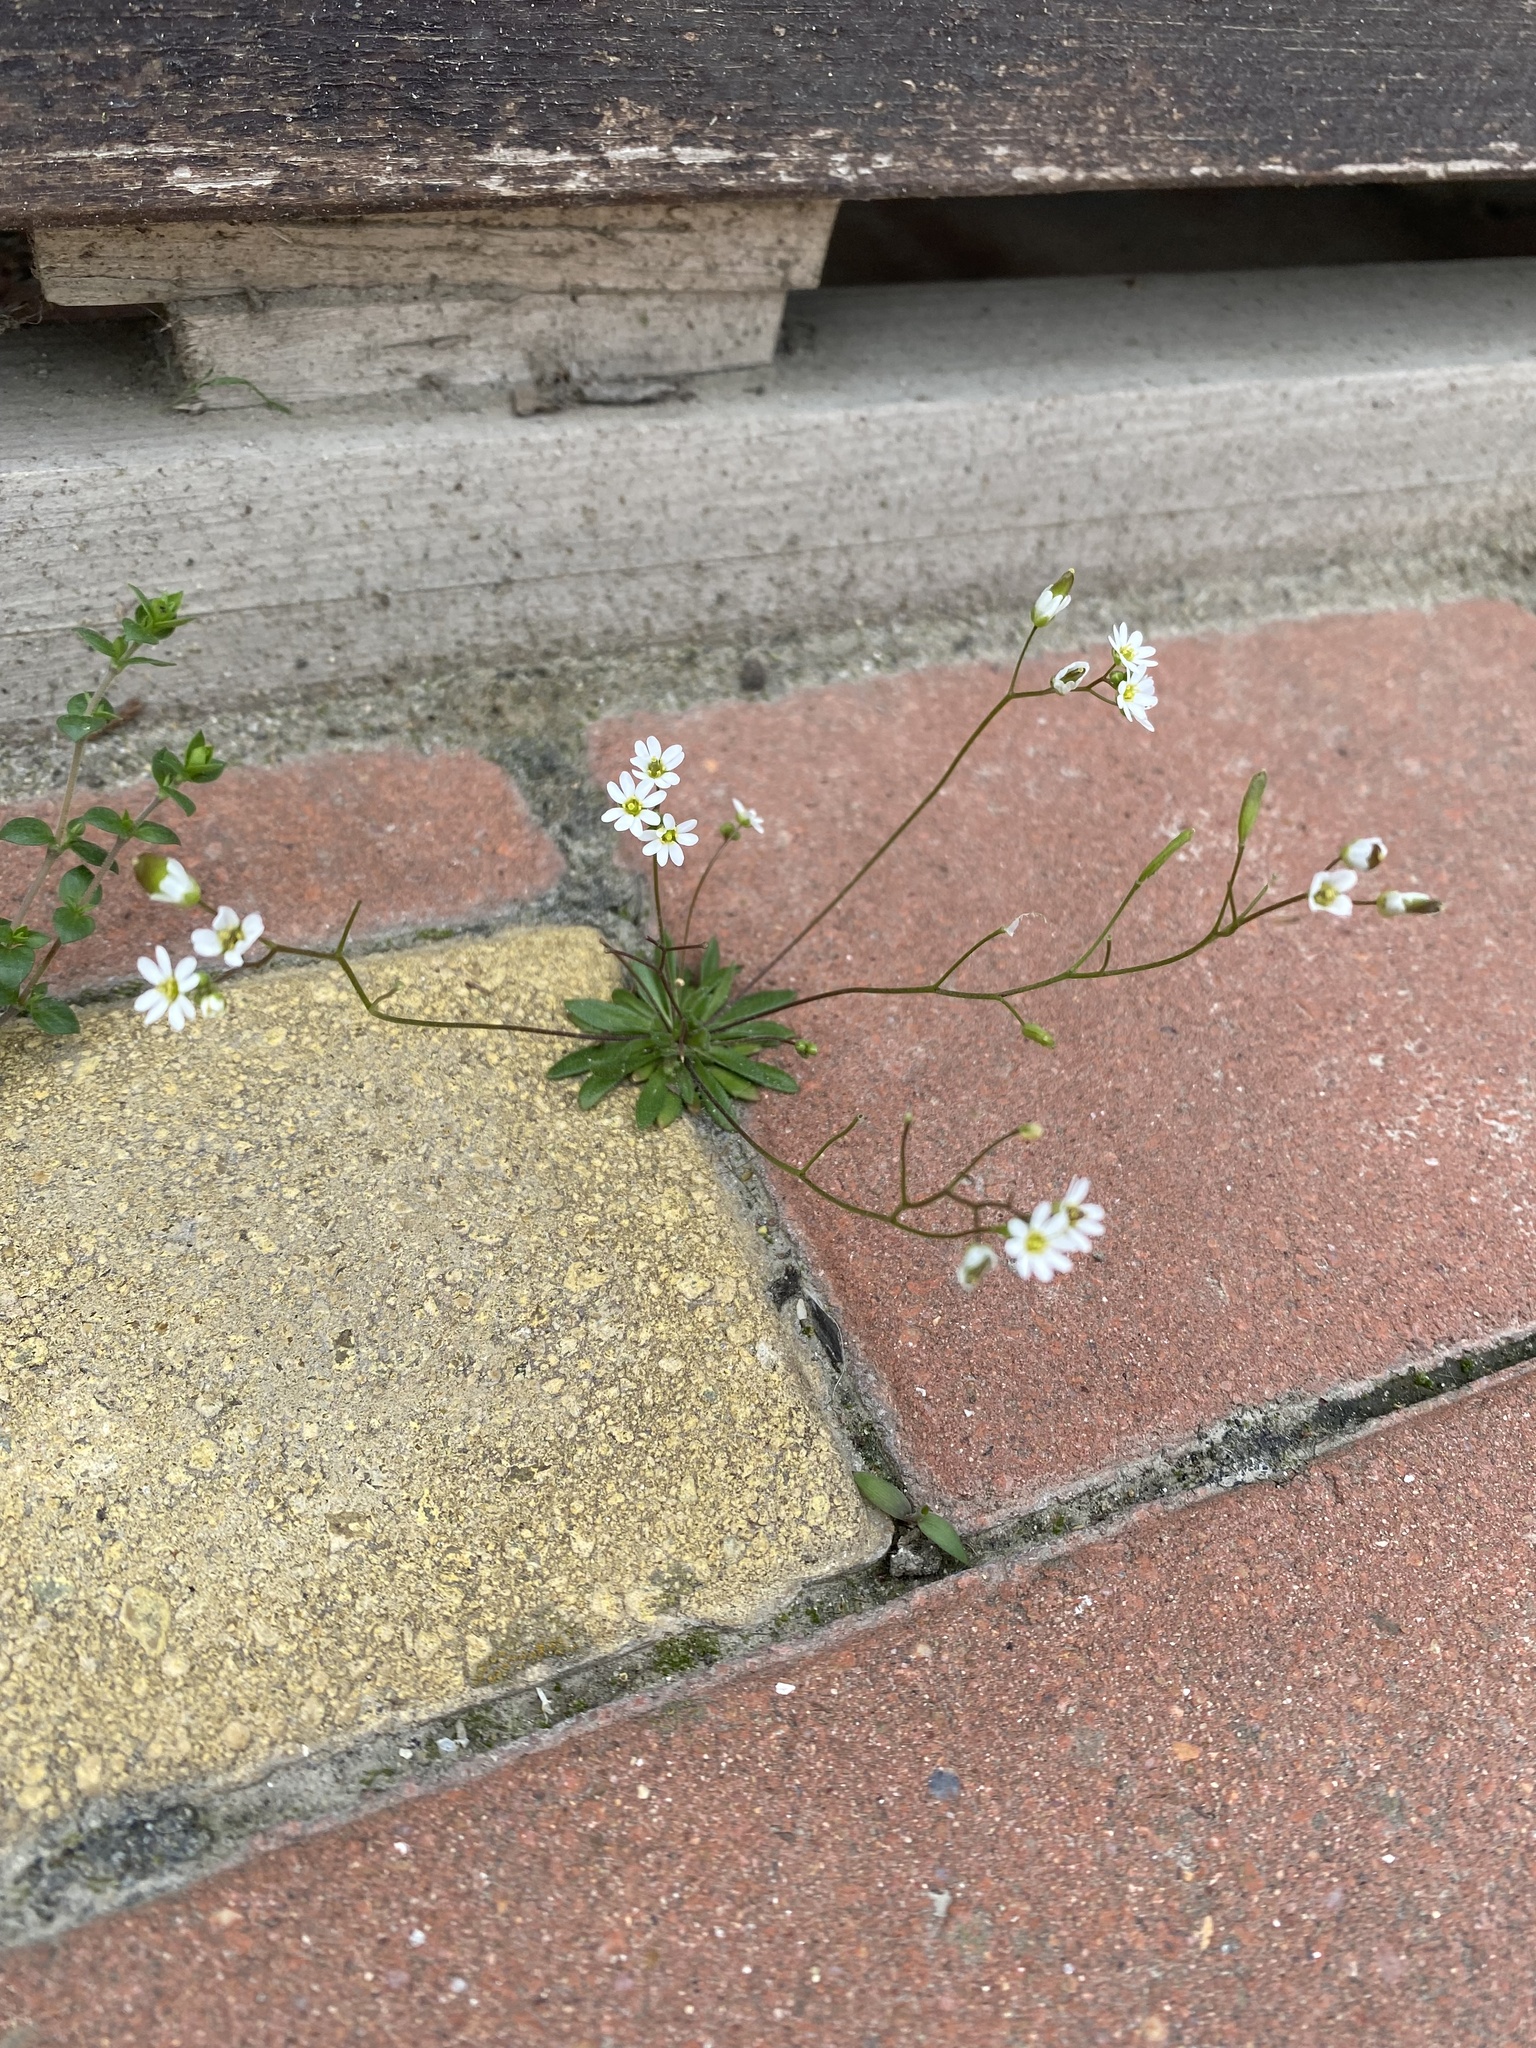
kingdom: Plantae
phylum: Tracheophyta
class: Magnoliopsida
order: Brassicales
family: Brassicaceae
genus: Draba
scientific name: Draba verna
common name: Spring draba
